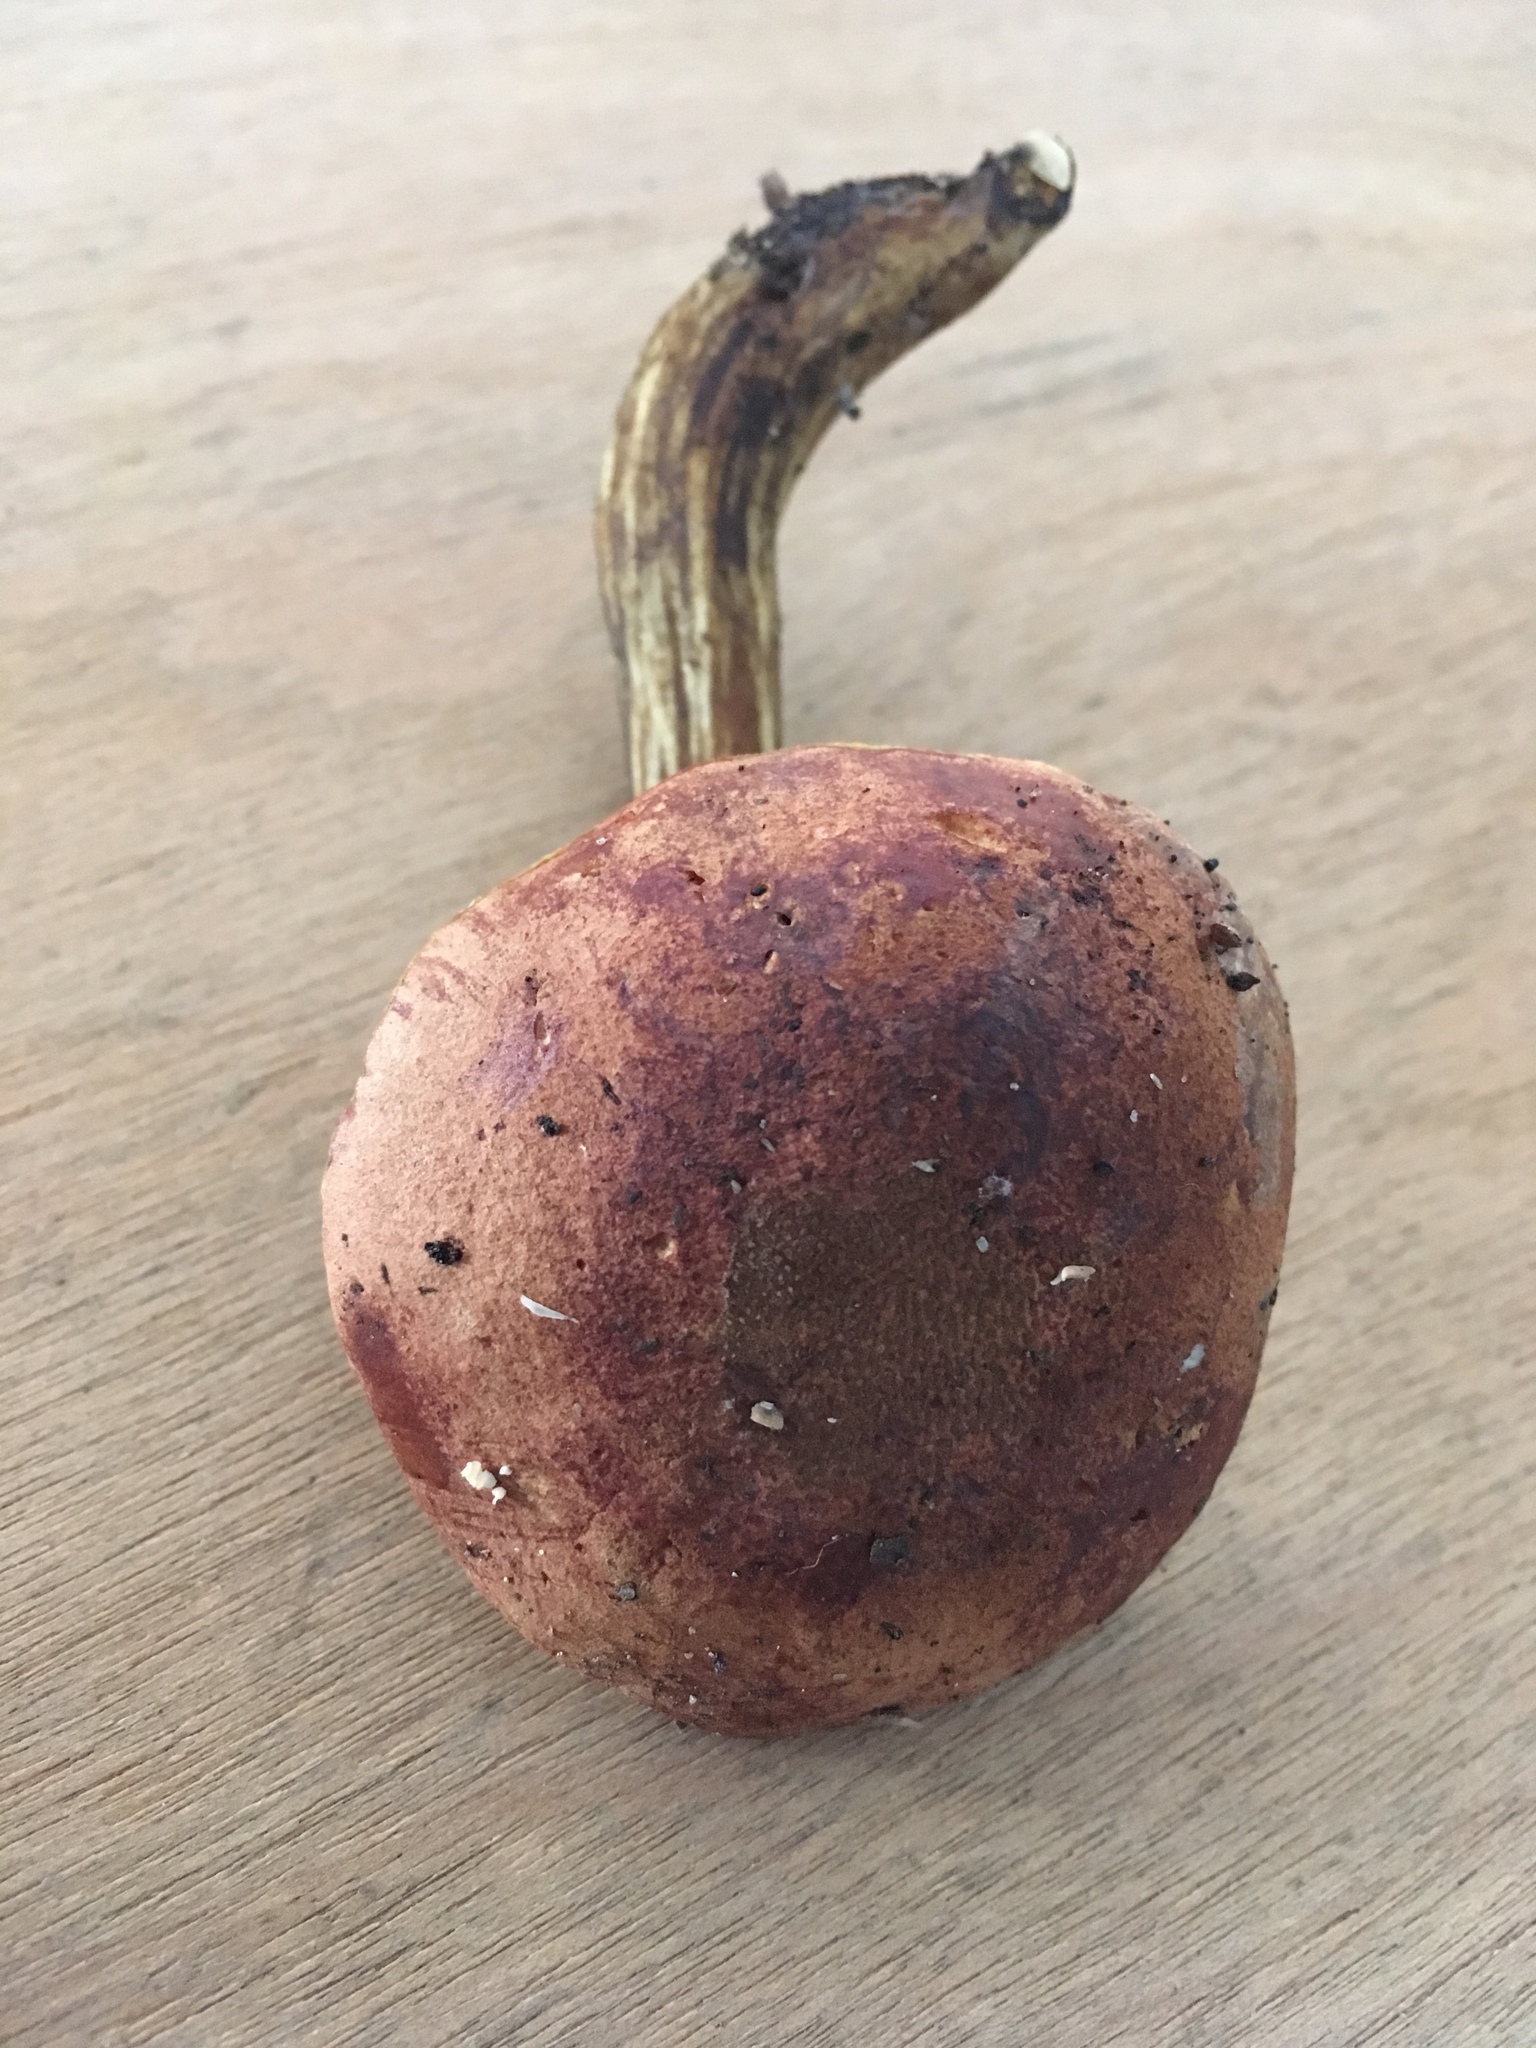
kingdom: Fungi
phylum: Basidiomycota
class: Agaricomycetes
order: Boletales
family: Boletaceae
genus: Aureoboletus
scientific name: Aureoboletus innixus
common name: Clustered brown bolete
